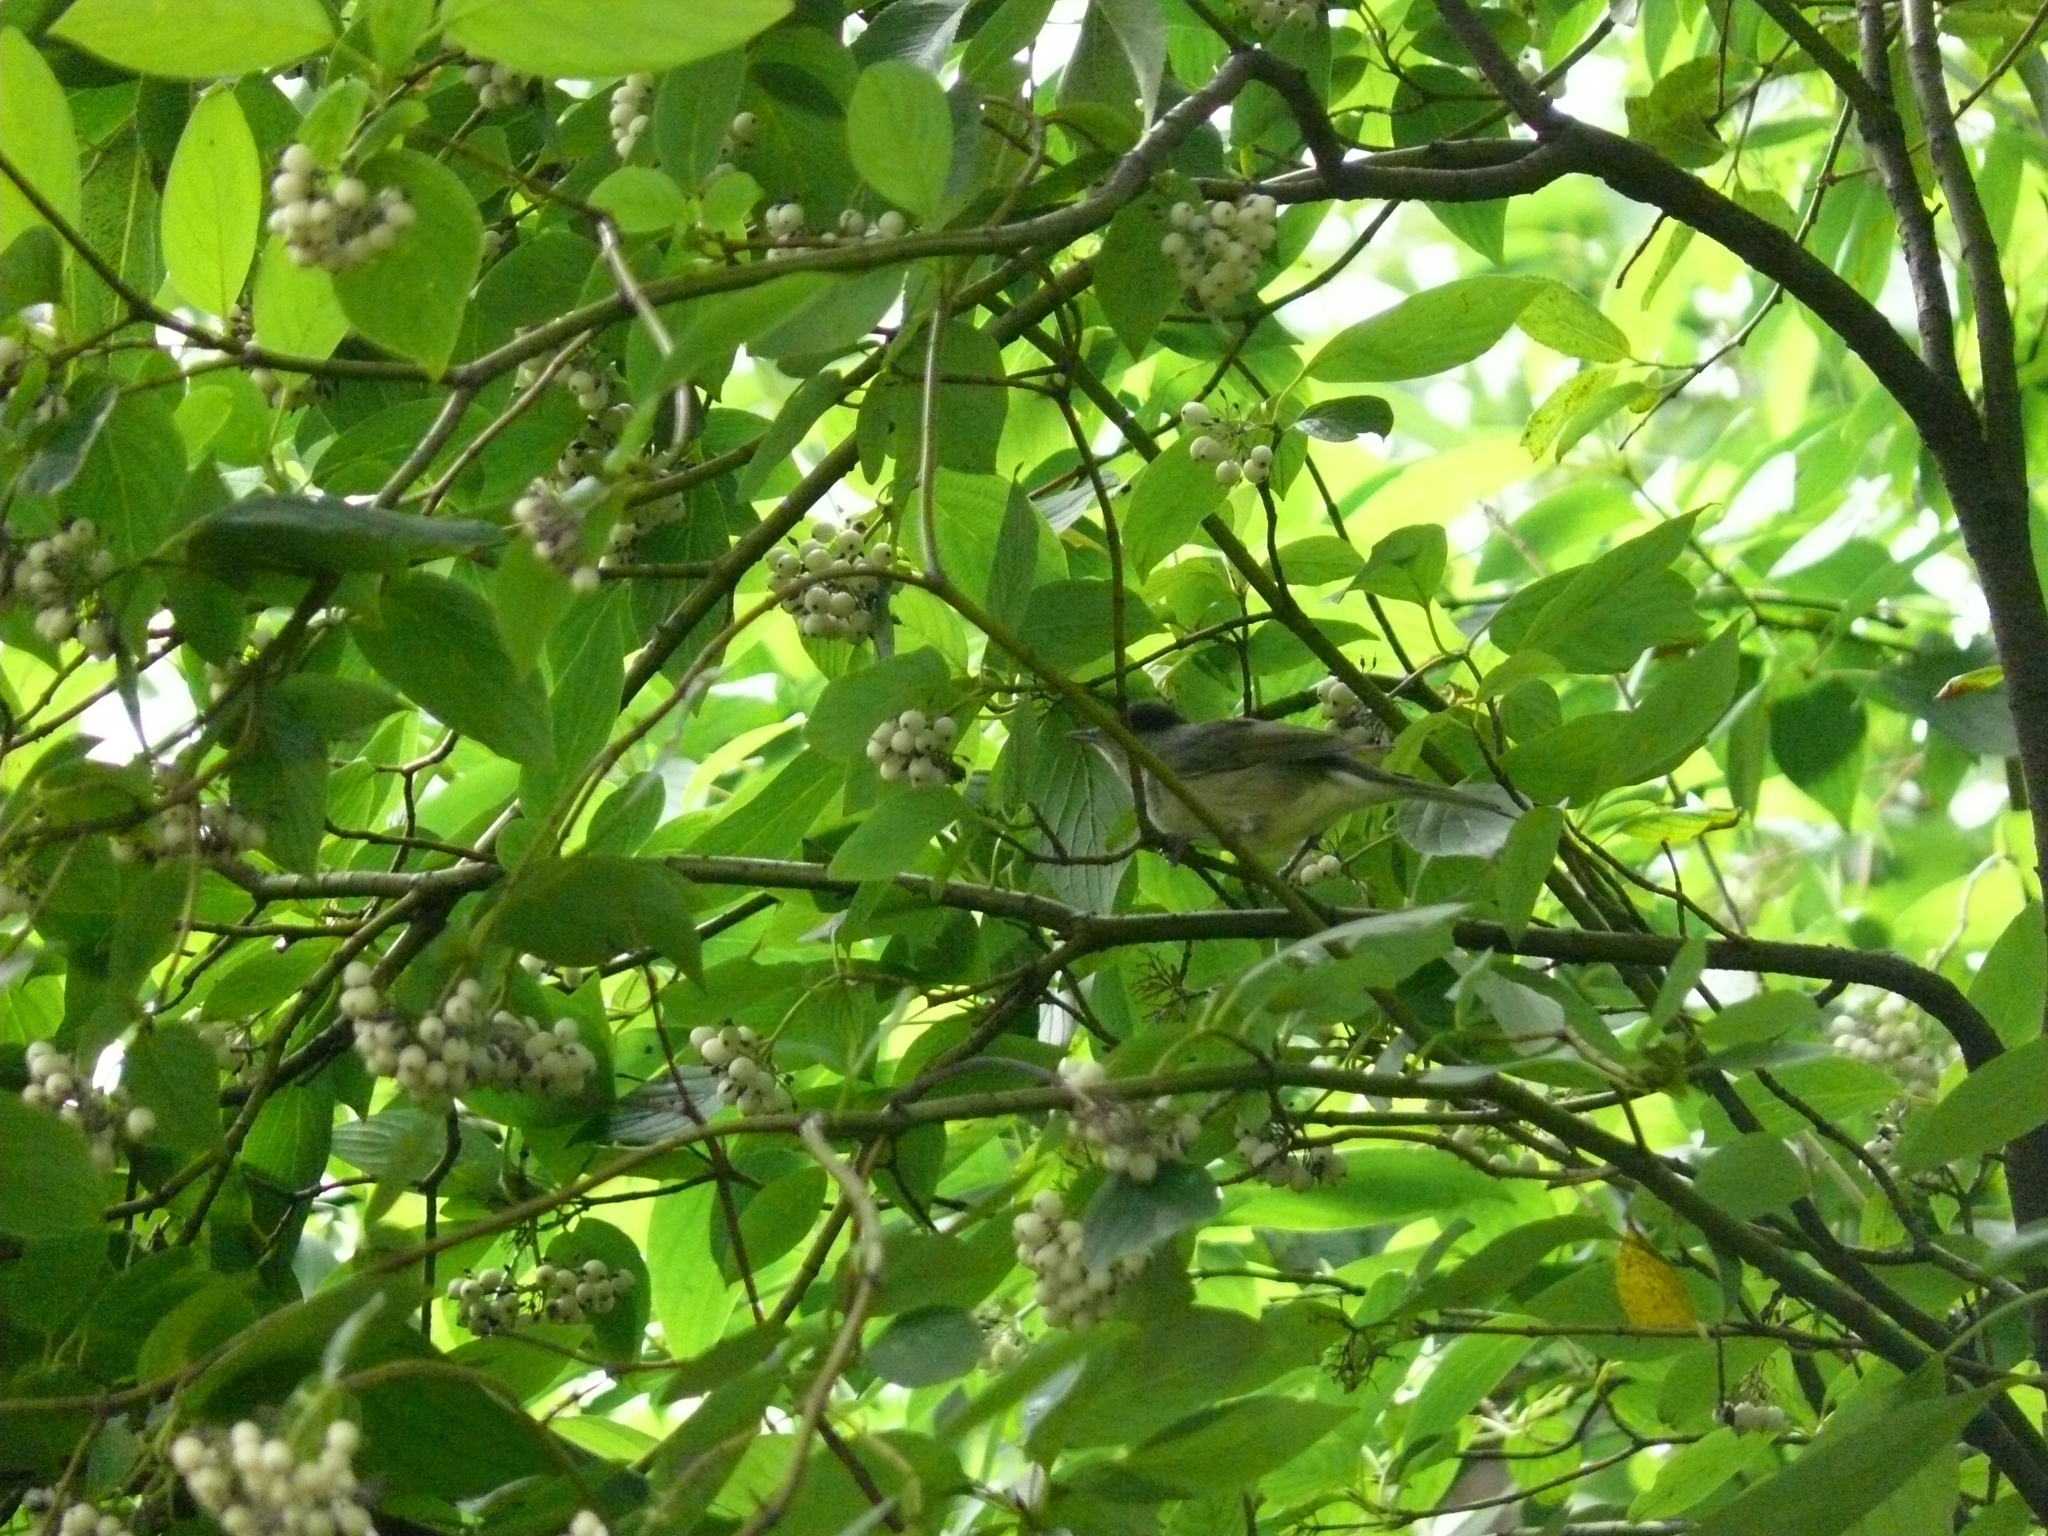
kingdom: Animalia
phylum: Chordata
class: Aves
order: Passeriformes
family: Sylviidae
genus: Sylvia
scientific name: Sylvia atricapilla
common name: Eurasian blackcap
